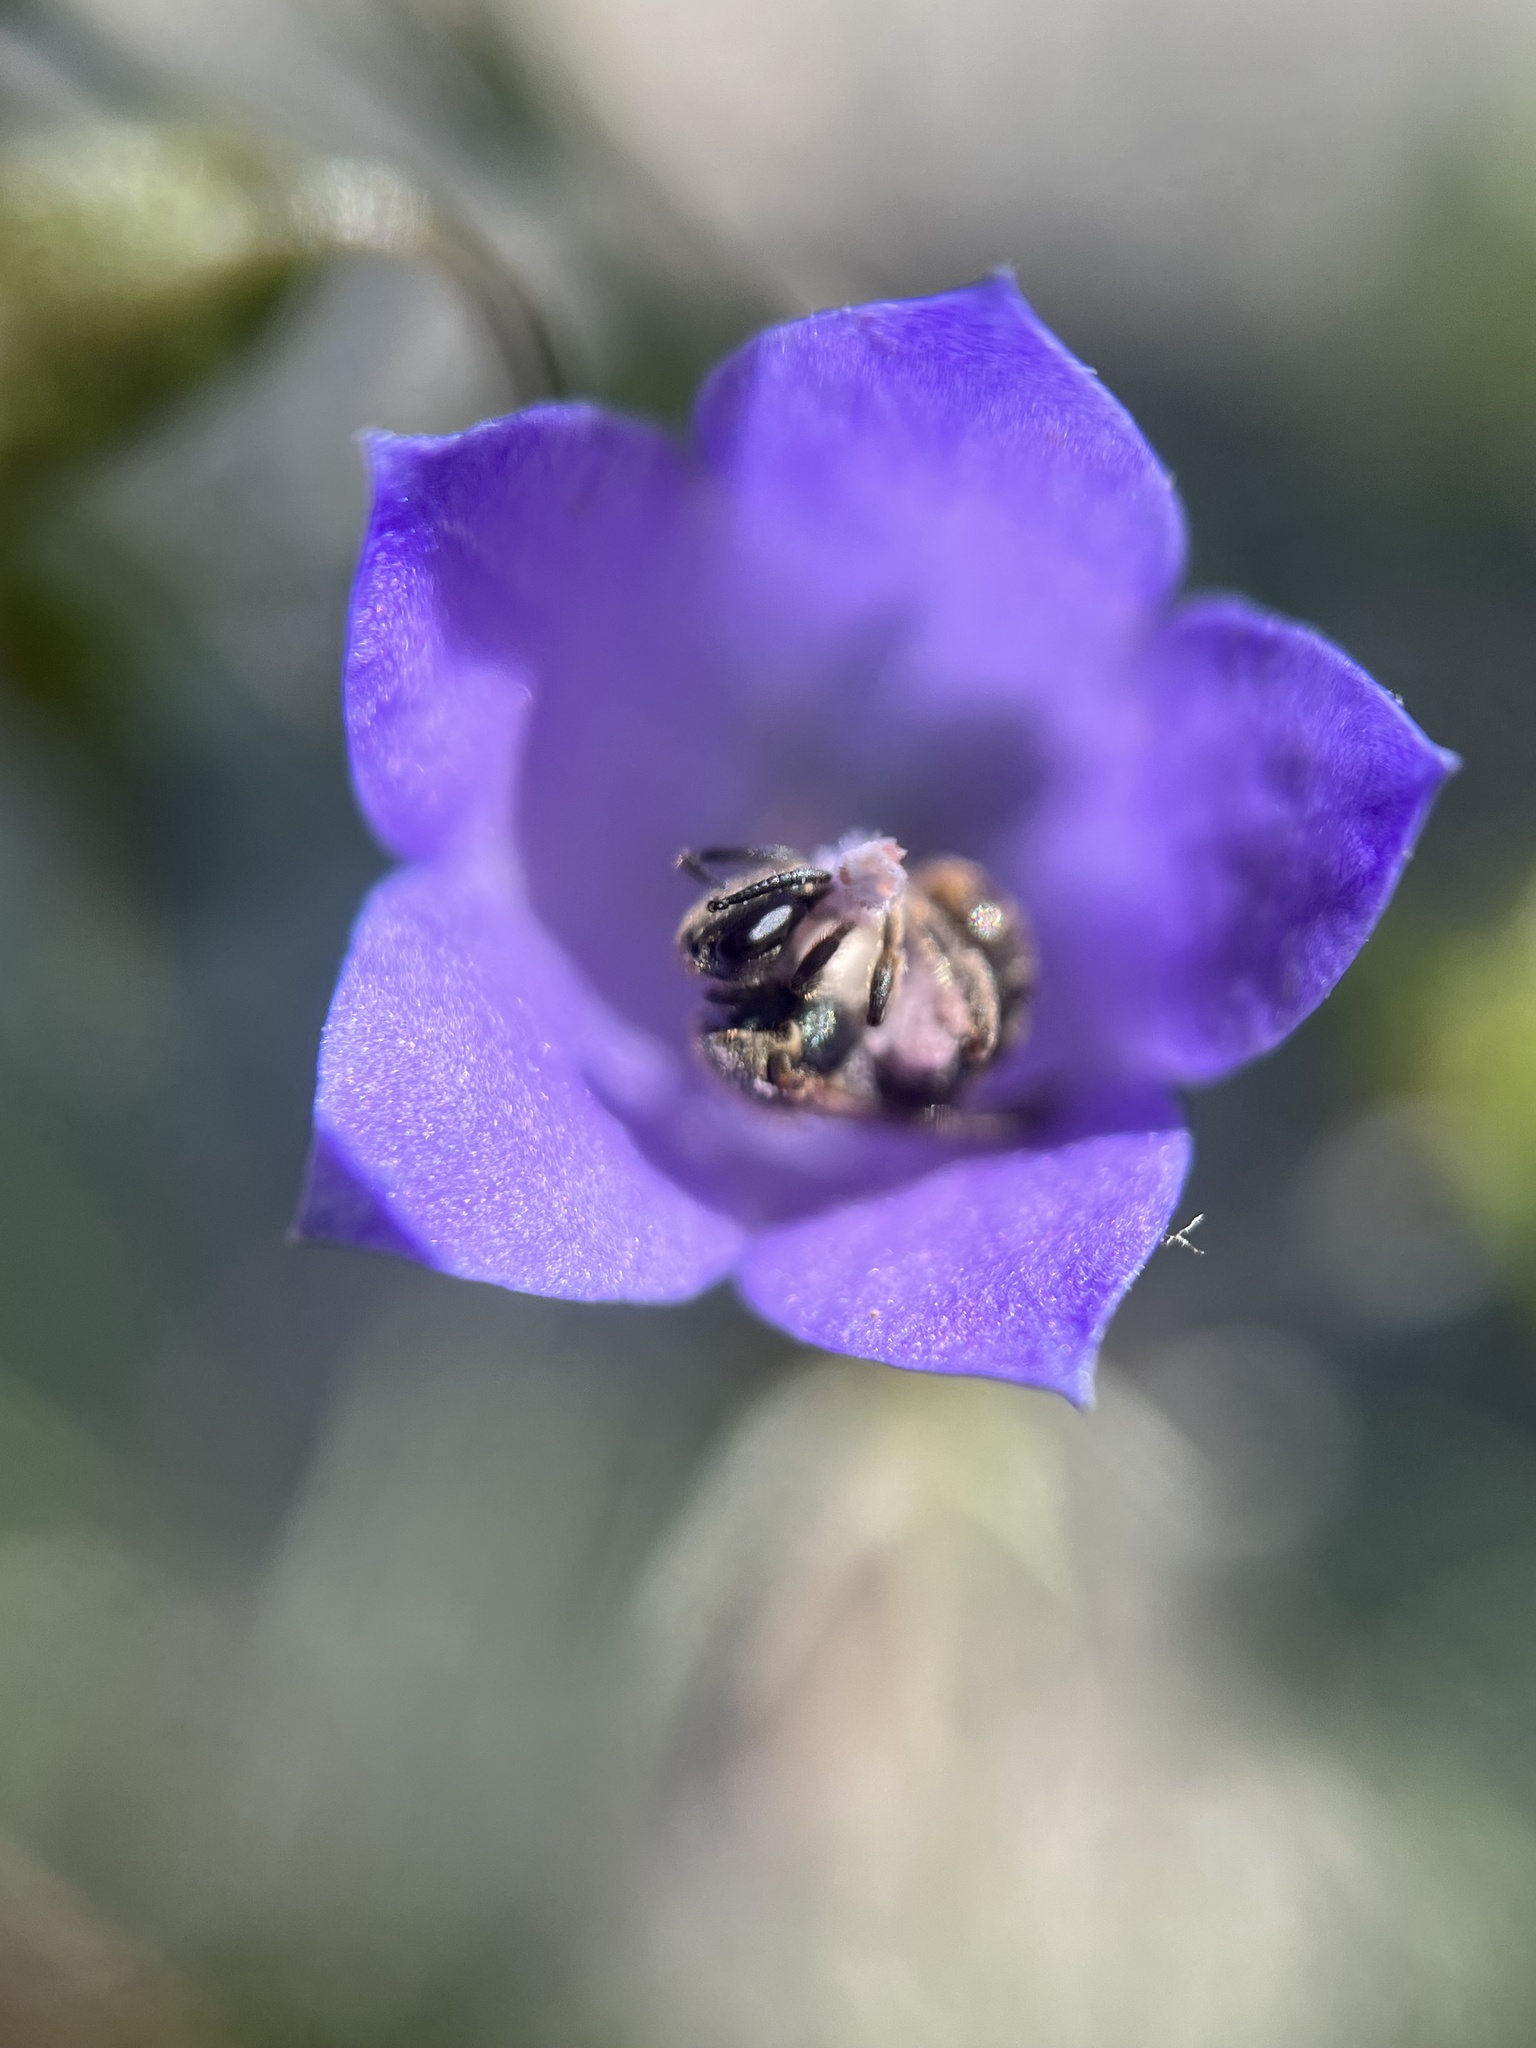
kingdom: Animalia
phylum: Arthropoda
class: Insecta
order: Hymenoptera
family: Halictidae
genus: Dialictus
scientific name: Dialictus
